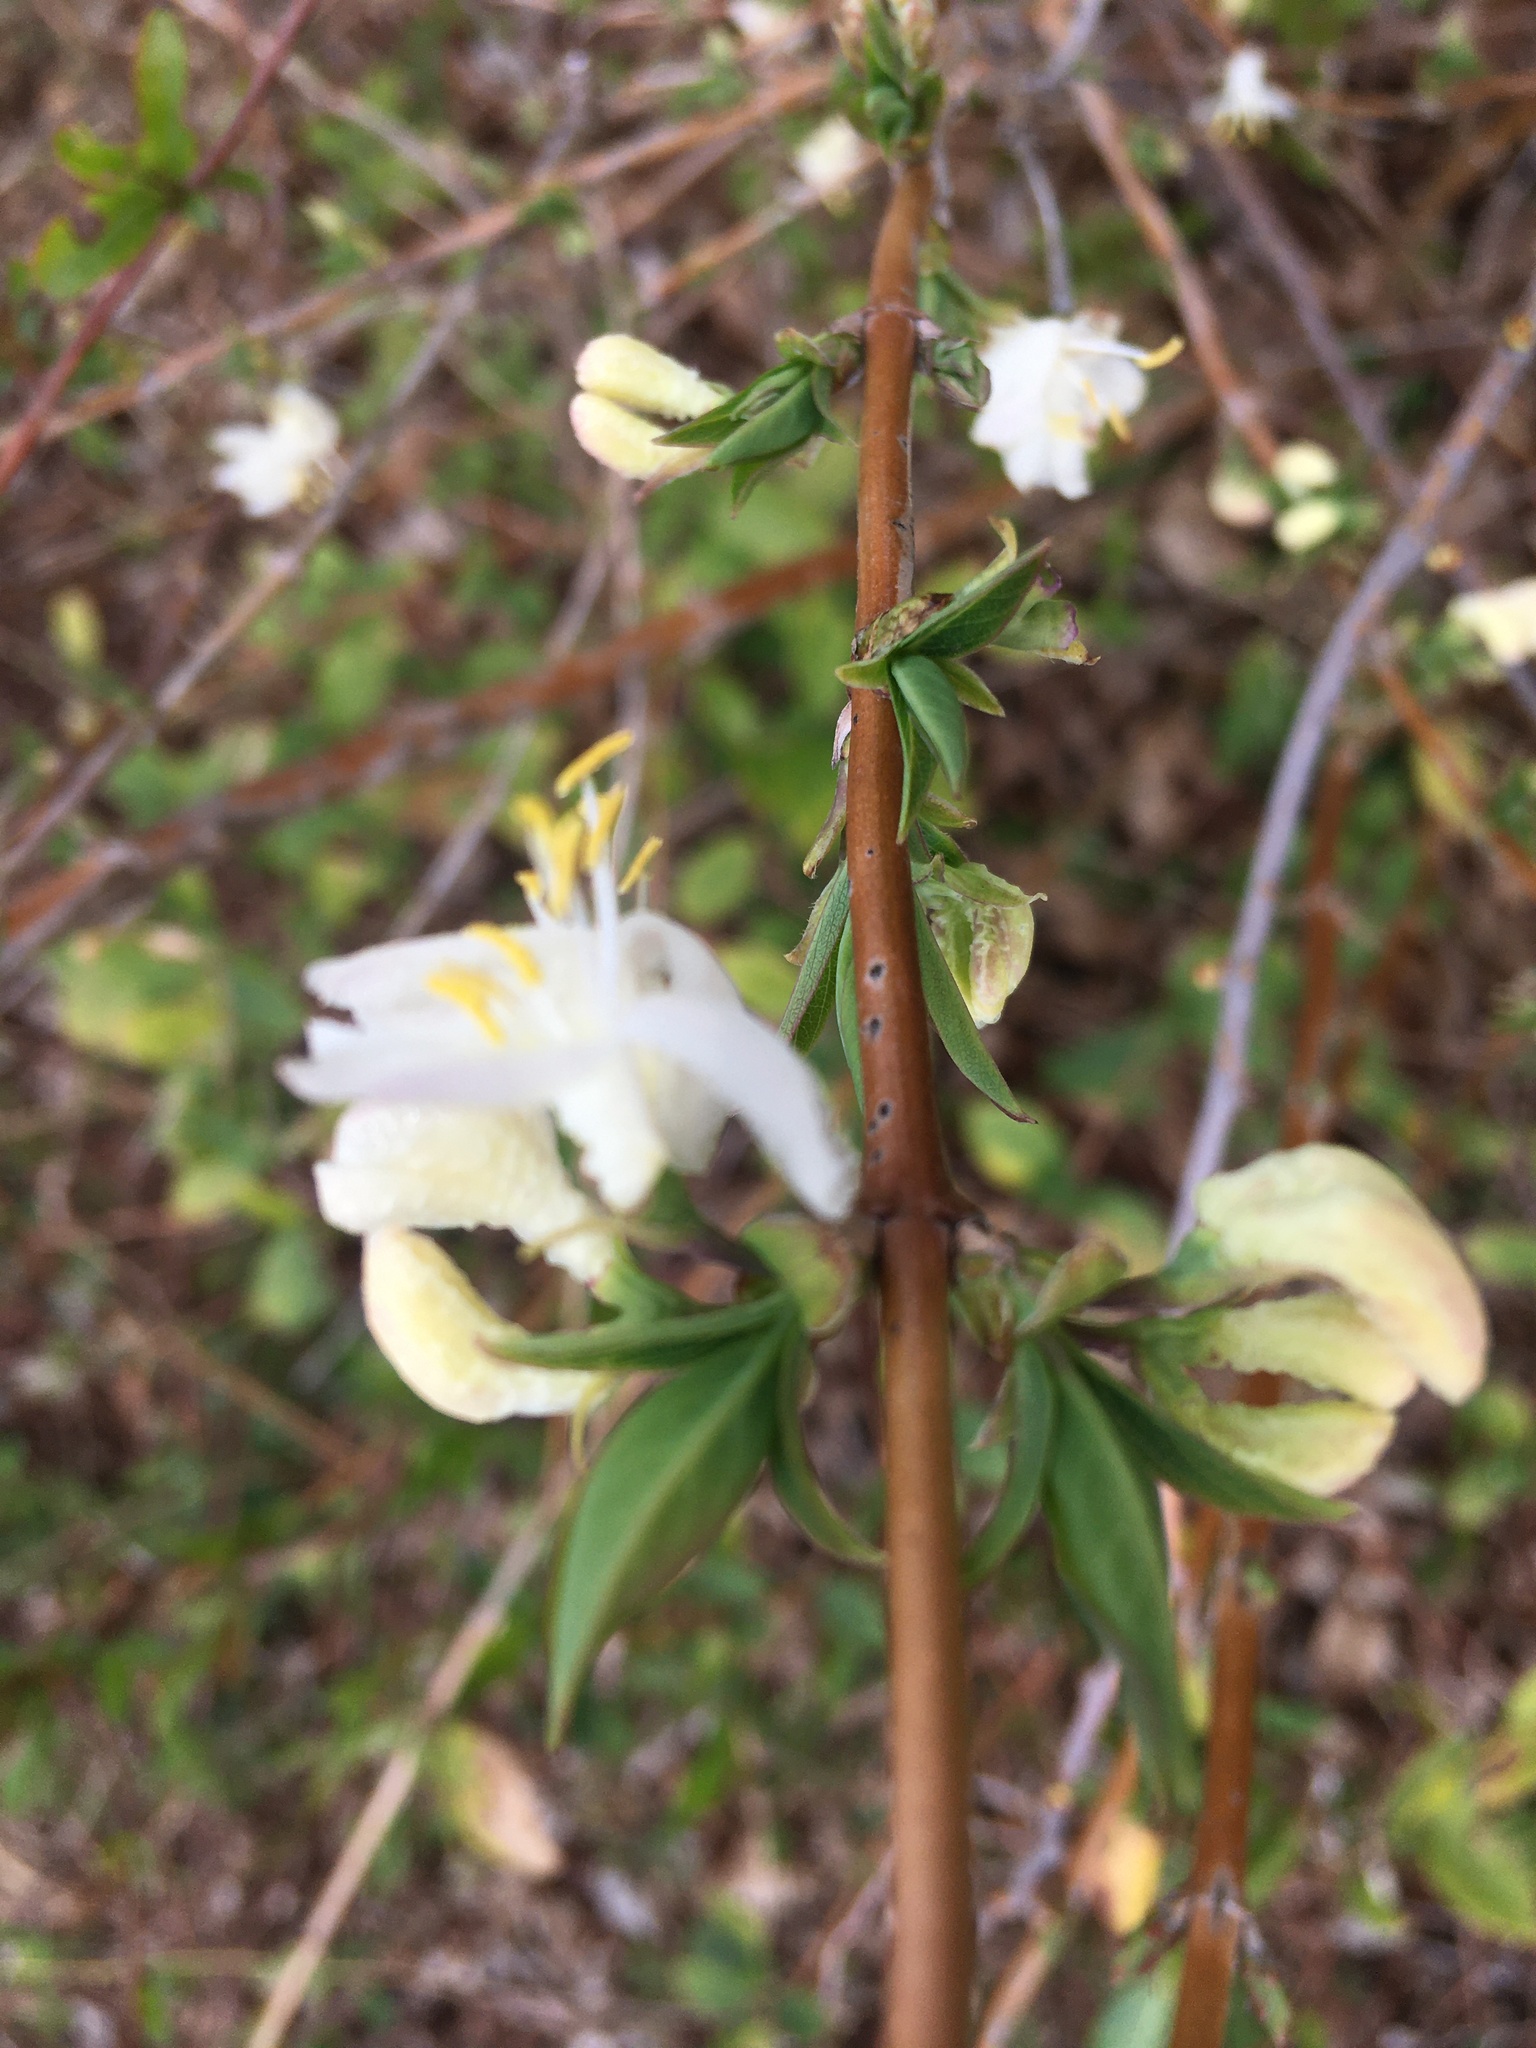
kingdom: Plantae
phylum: Tracheophyta
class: Magnoliopsida
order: Dipsacales
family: Caprifoliaceae
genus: Lonicera
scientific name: Lonicera fragrantissima
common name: Fragrant honeysuckle
